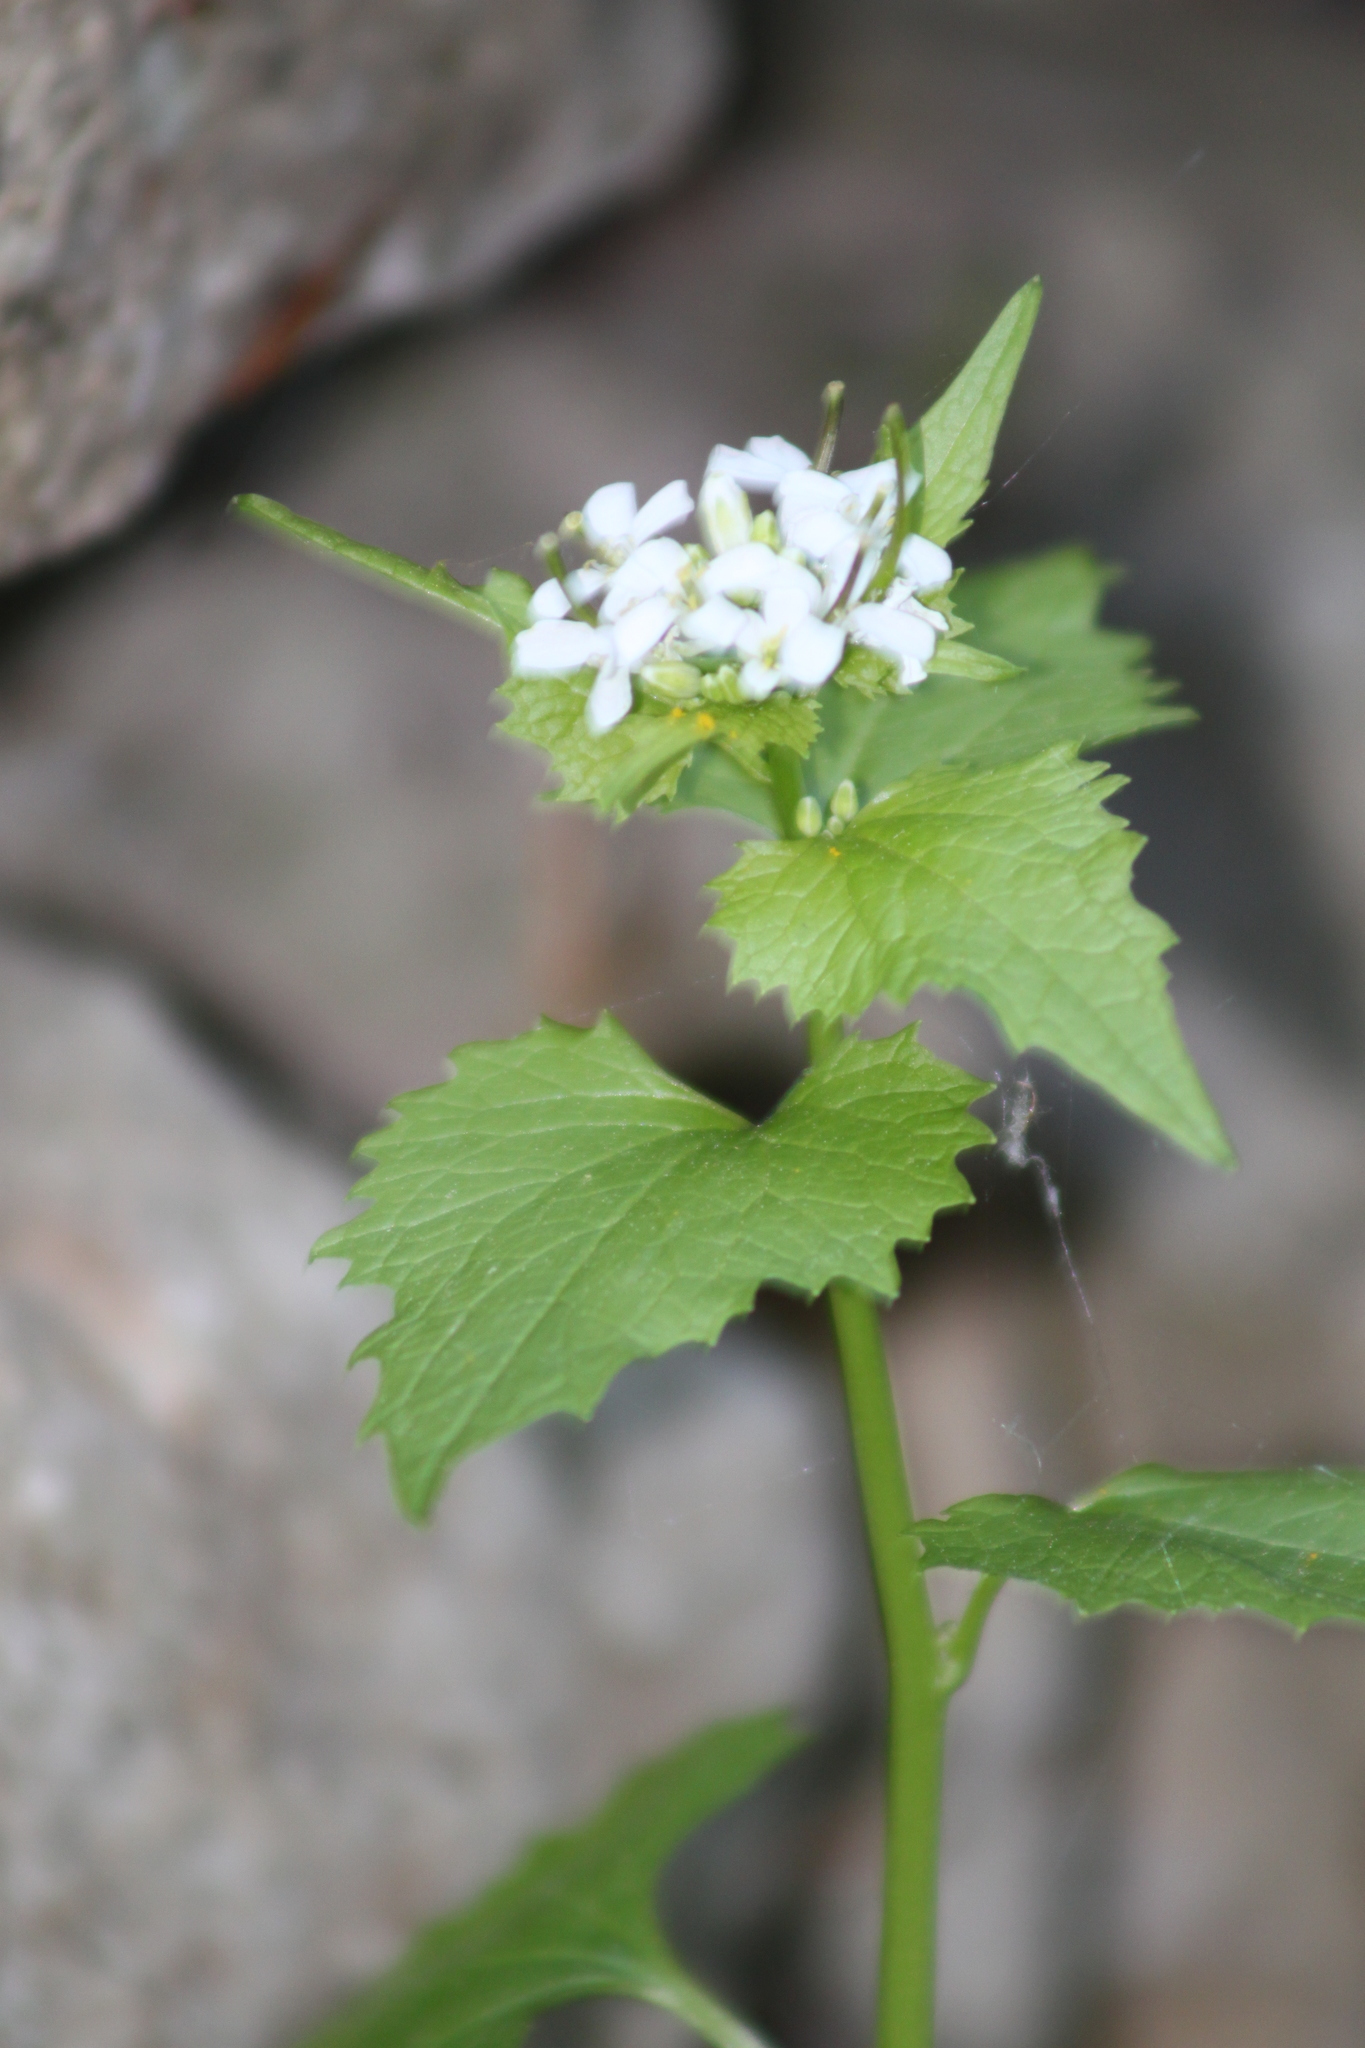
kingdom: Plantae
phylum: Tracheophyta
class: Magnoliopsida
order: Brassicales
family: Brassicaceae
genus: Alliaria
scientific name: Alliaria petiolata
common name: Garlic mustard
